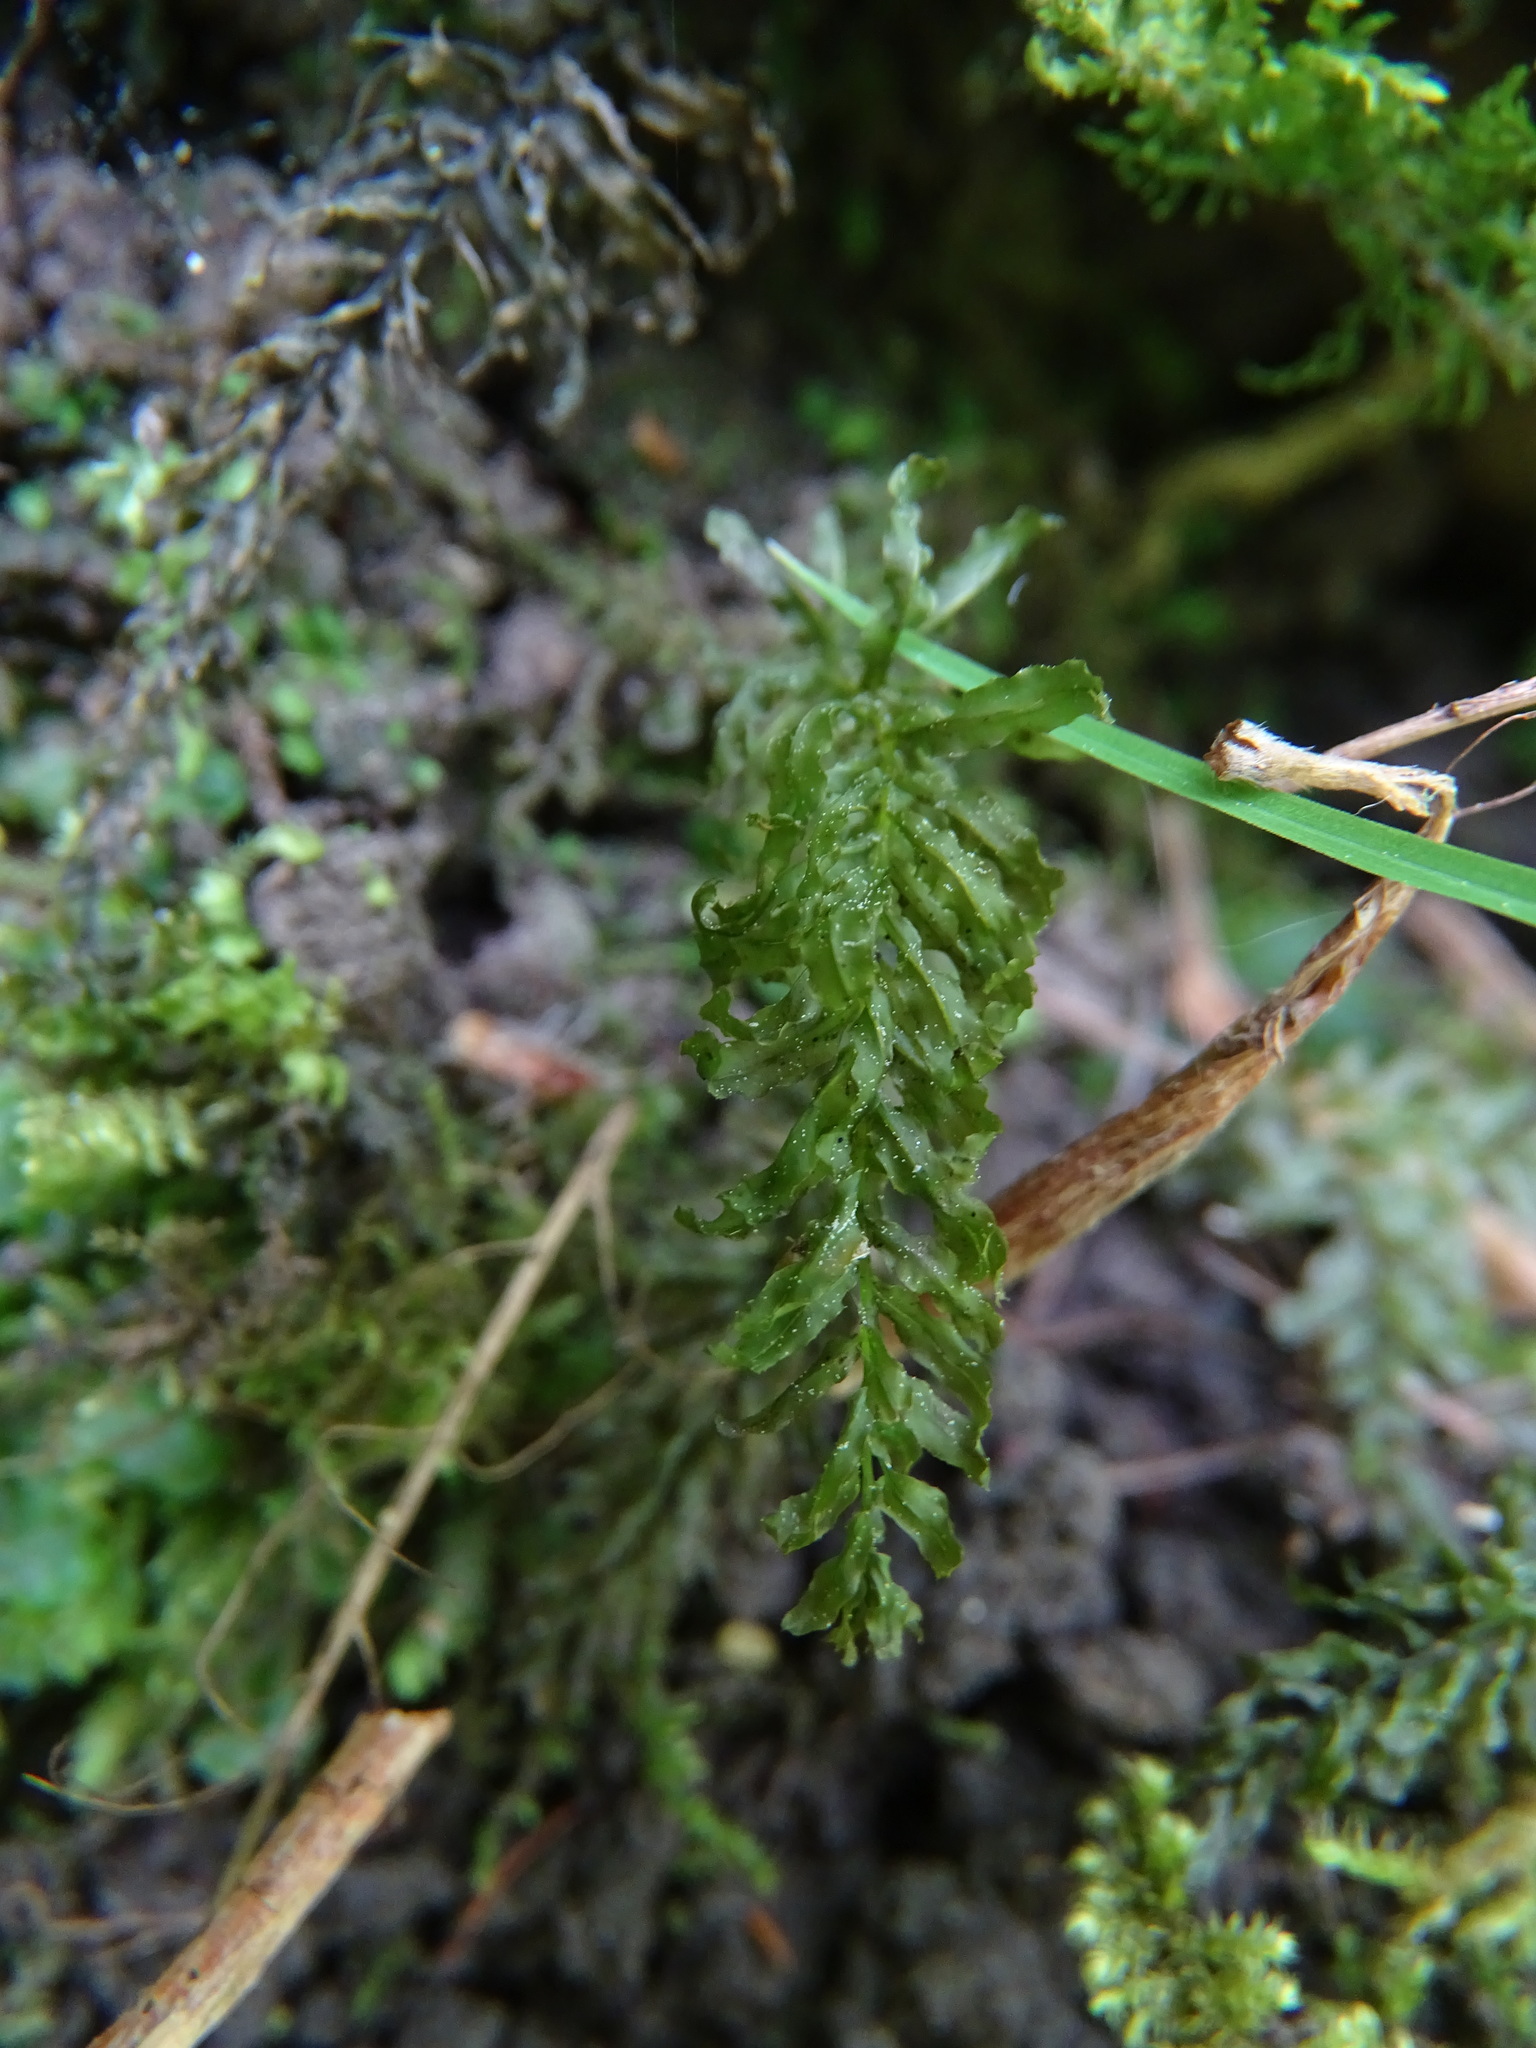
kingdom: Plantae
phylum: Bryophyta
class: Bryopsida
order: Bryales
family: Mniaceae
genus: Plagiomnium
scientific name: Plagiomnium undulatum
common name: Hart's-tongue thyme-moss
